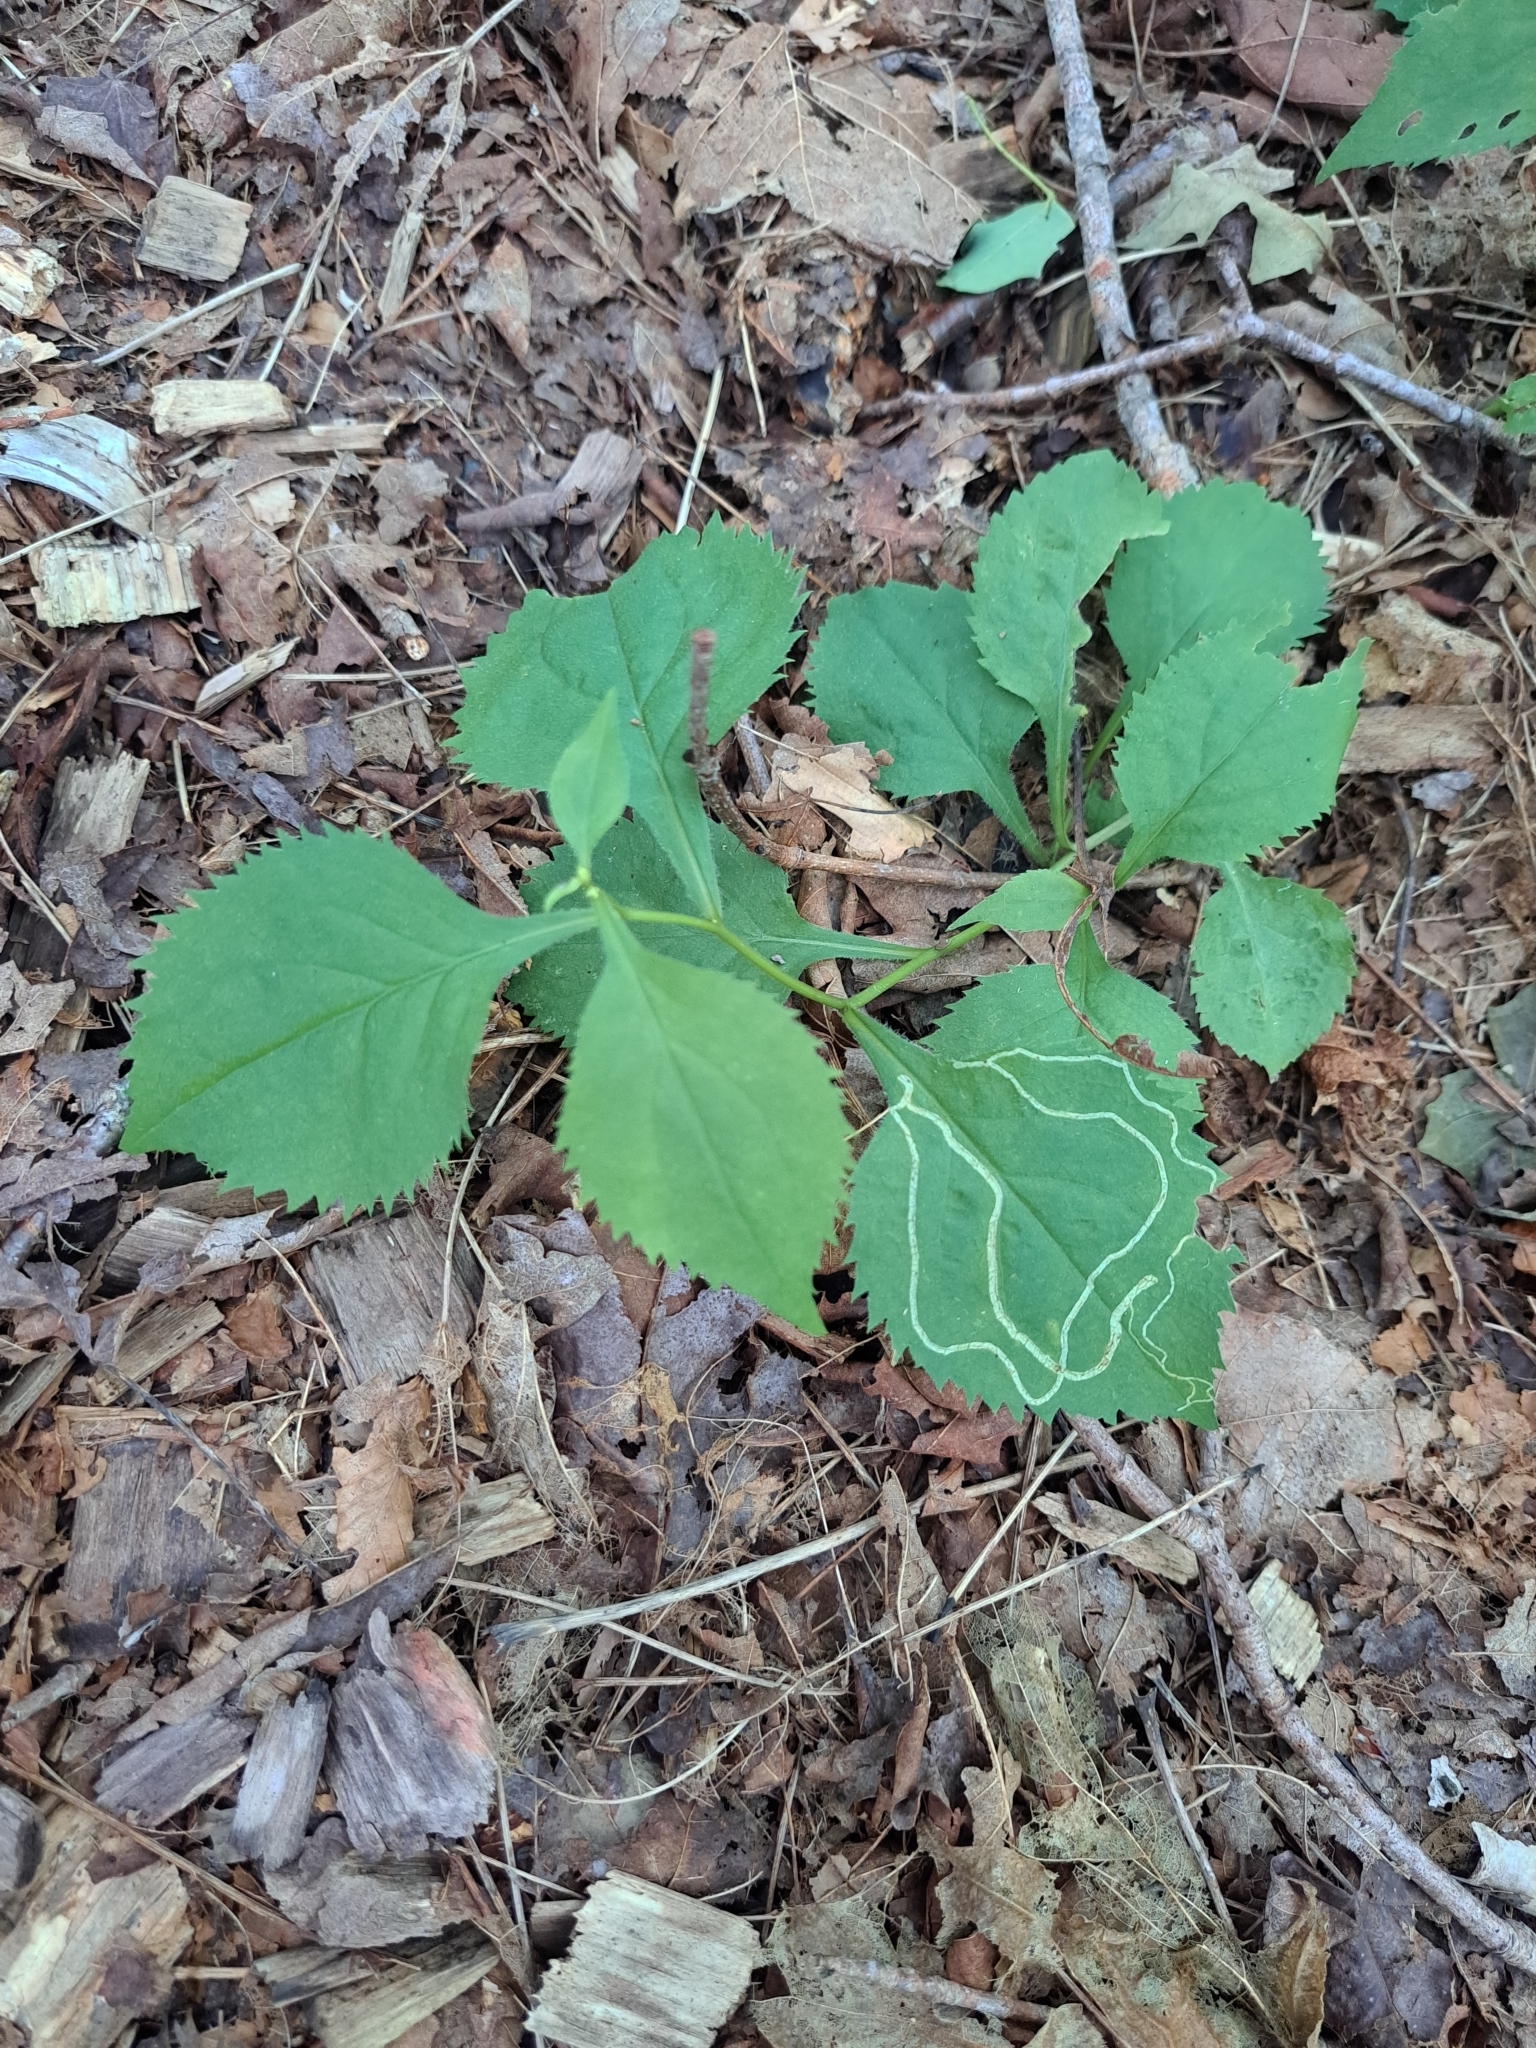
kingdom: Animalia
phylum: Arthropoda
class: Insecta
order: Diptera
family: Agromyzidae
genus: Ophiomyia
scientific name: Ophiomyia maura
